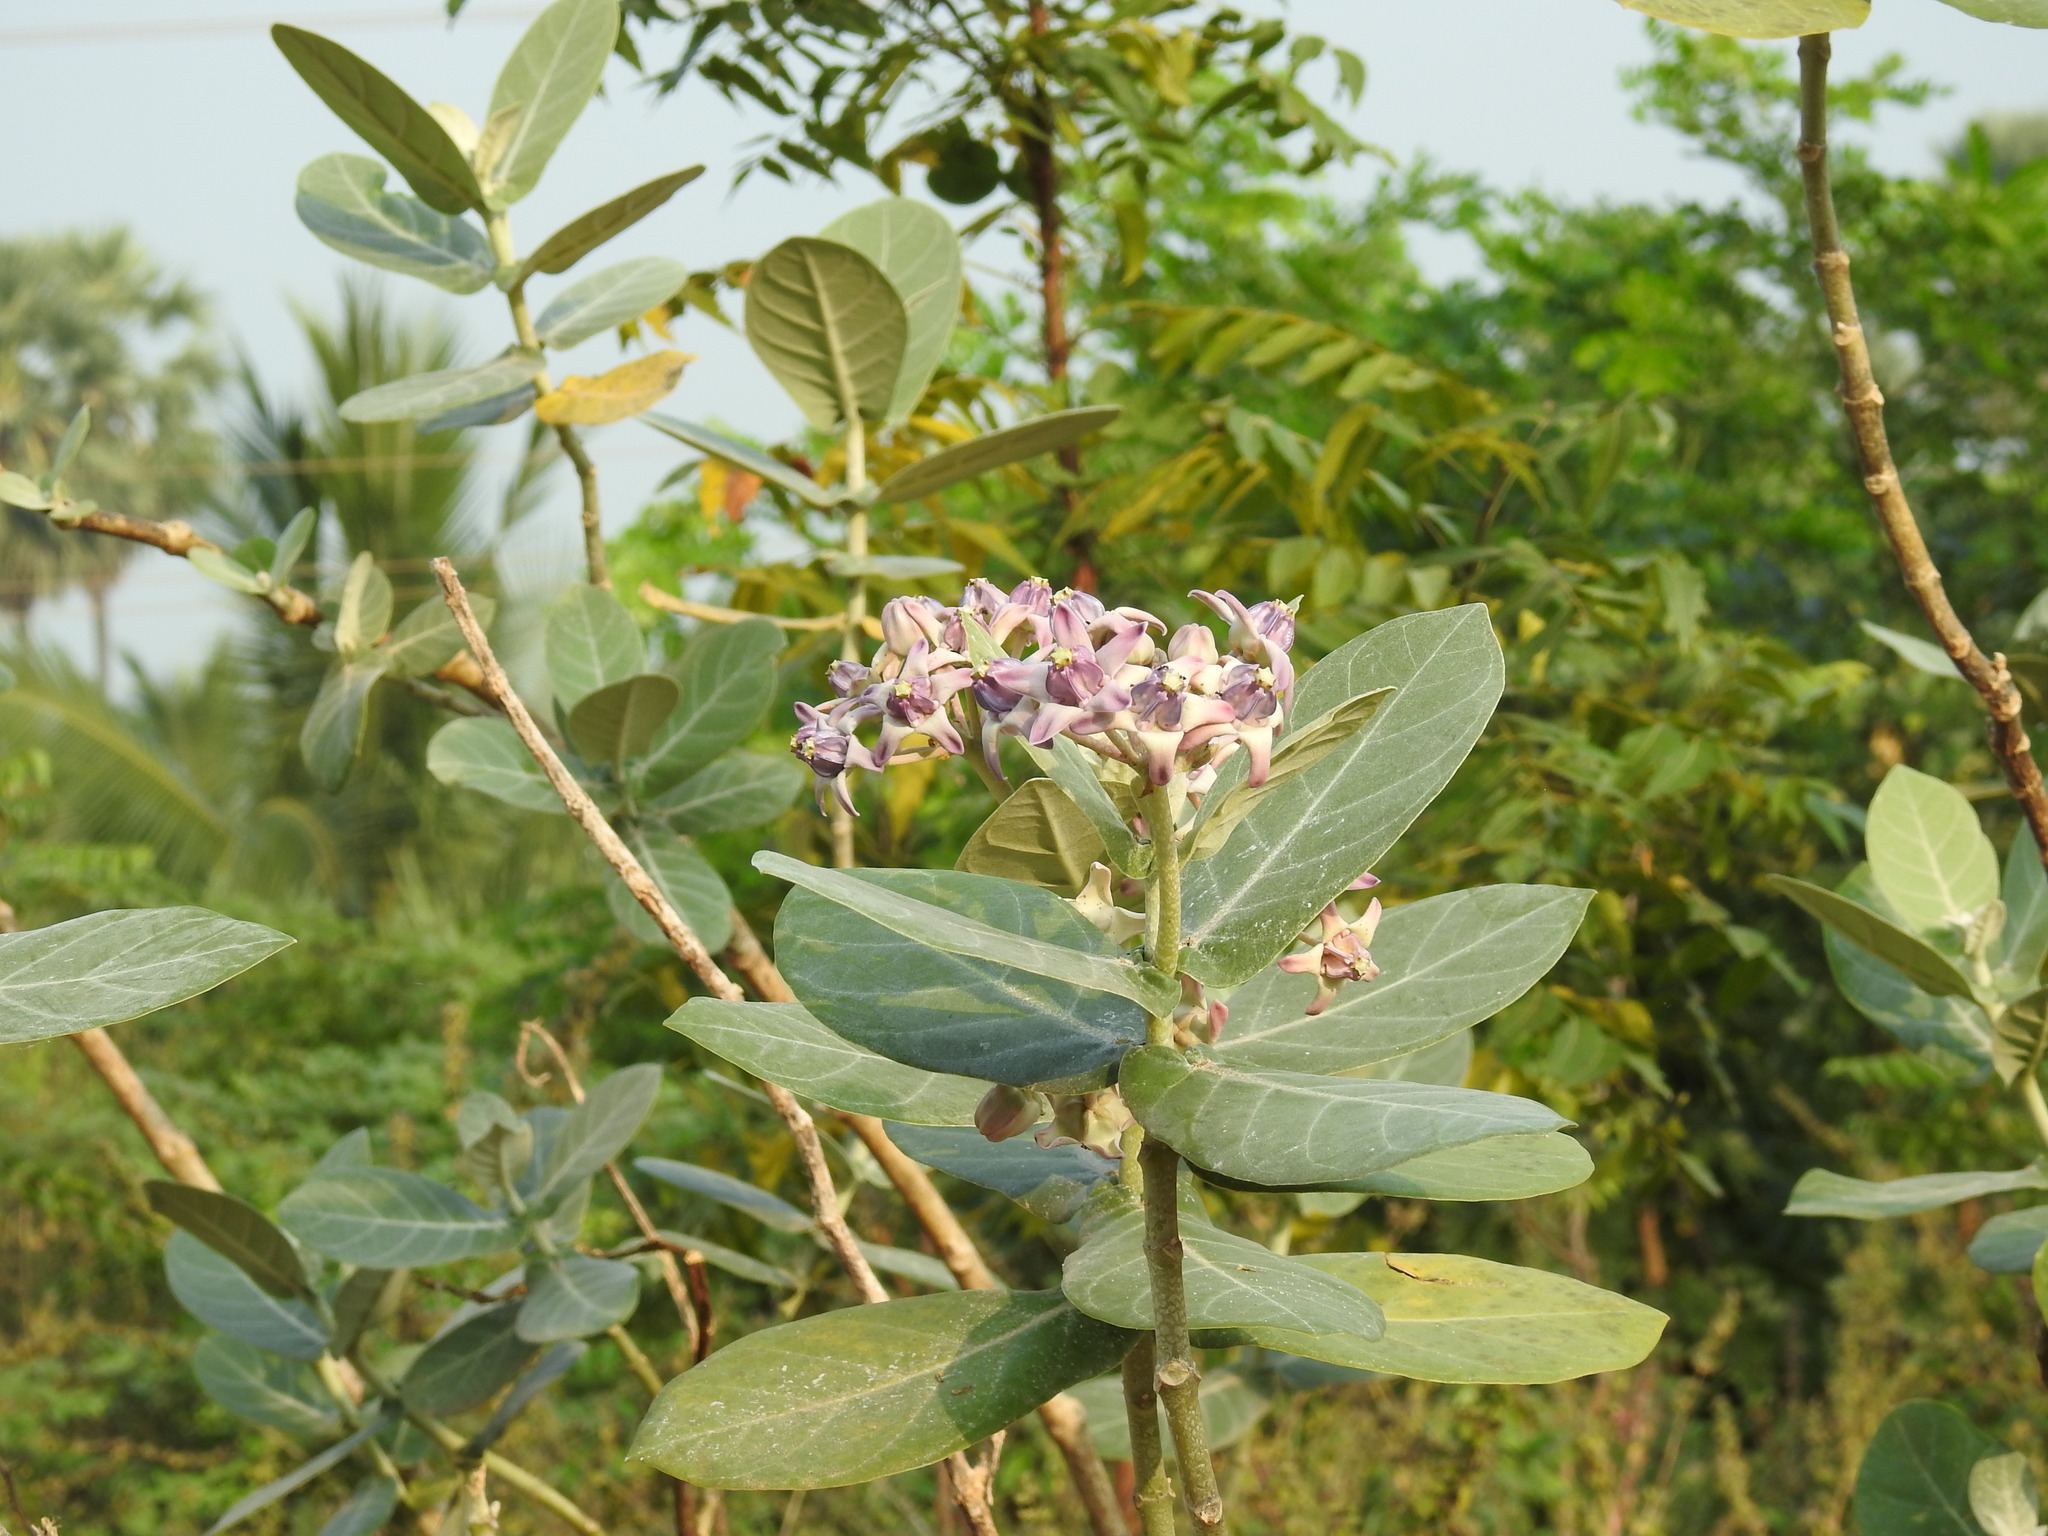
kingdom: Plantae
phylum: Tracheophyta
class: Magnoliopsida
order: Gentianales
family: Apocynaceae
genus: Calotropis
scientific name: Calotropis gigantea
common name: Crown flower
